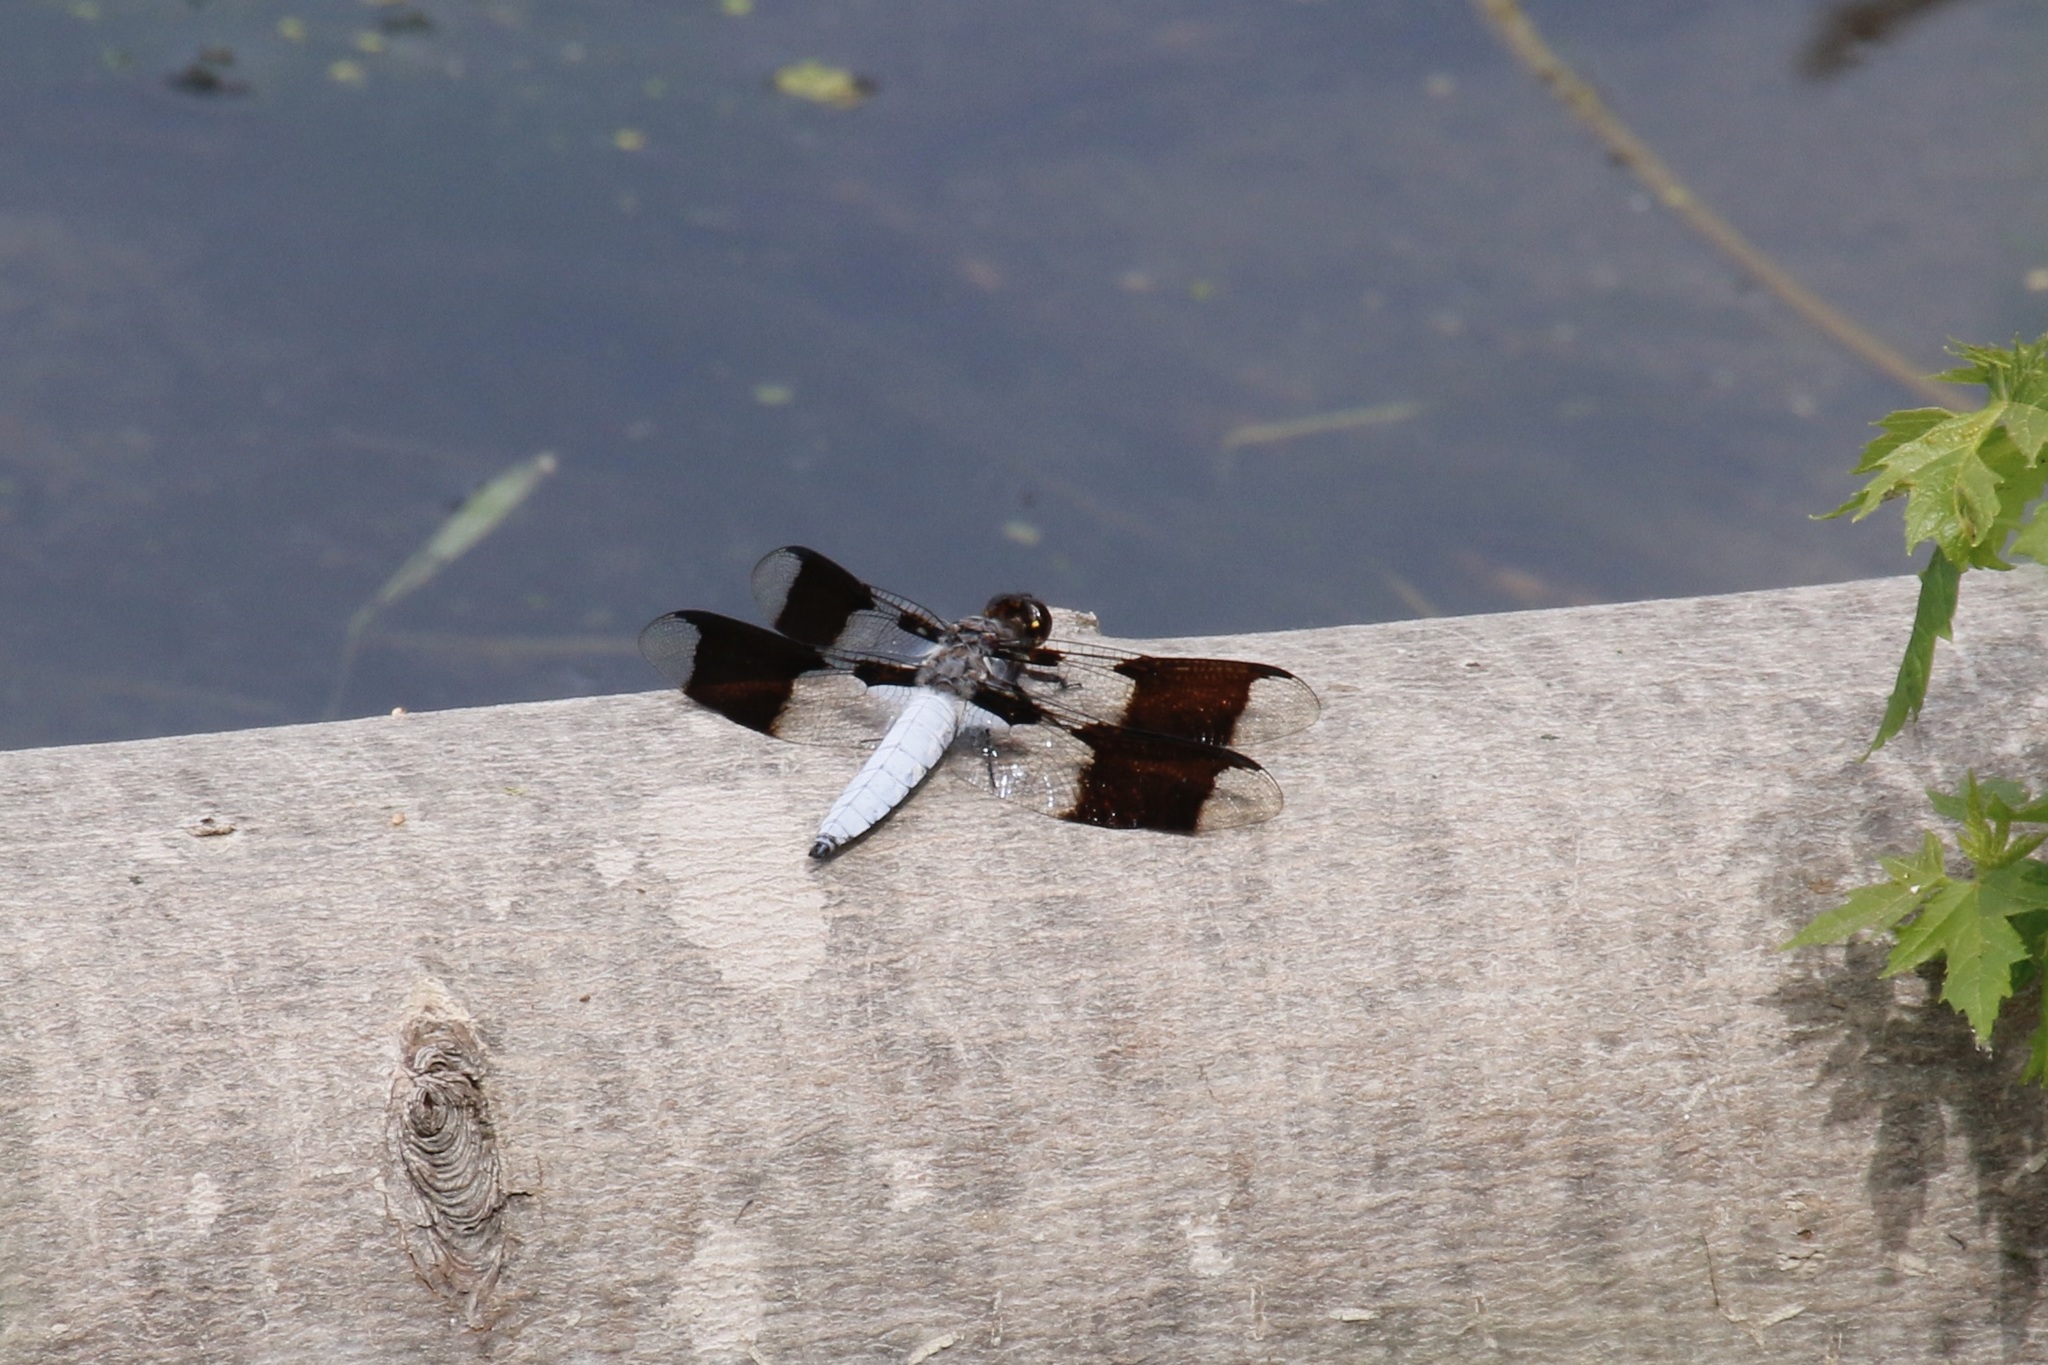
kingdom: Animalia
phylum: Arthropoda
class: Insecta
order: Odonata
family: Libellulidae
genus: Plathemis
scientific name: Plathemis lydia
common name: Common whitetail
